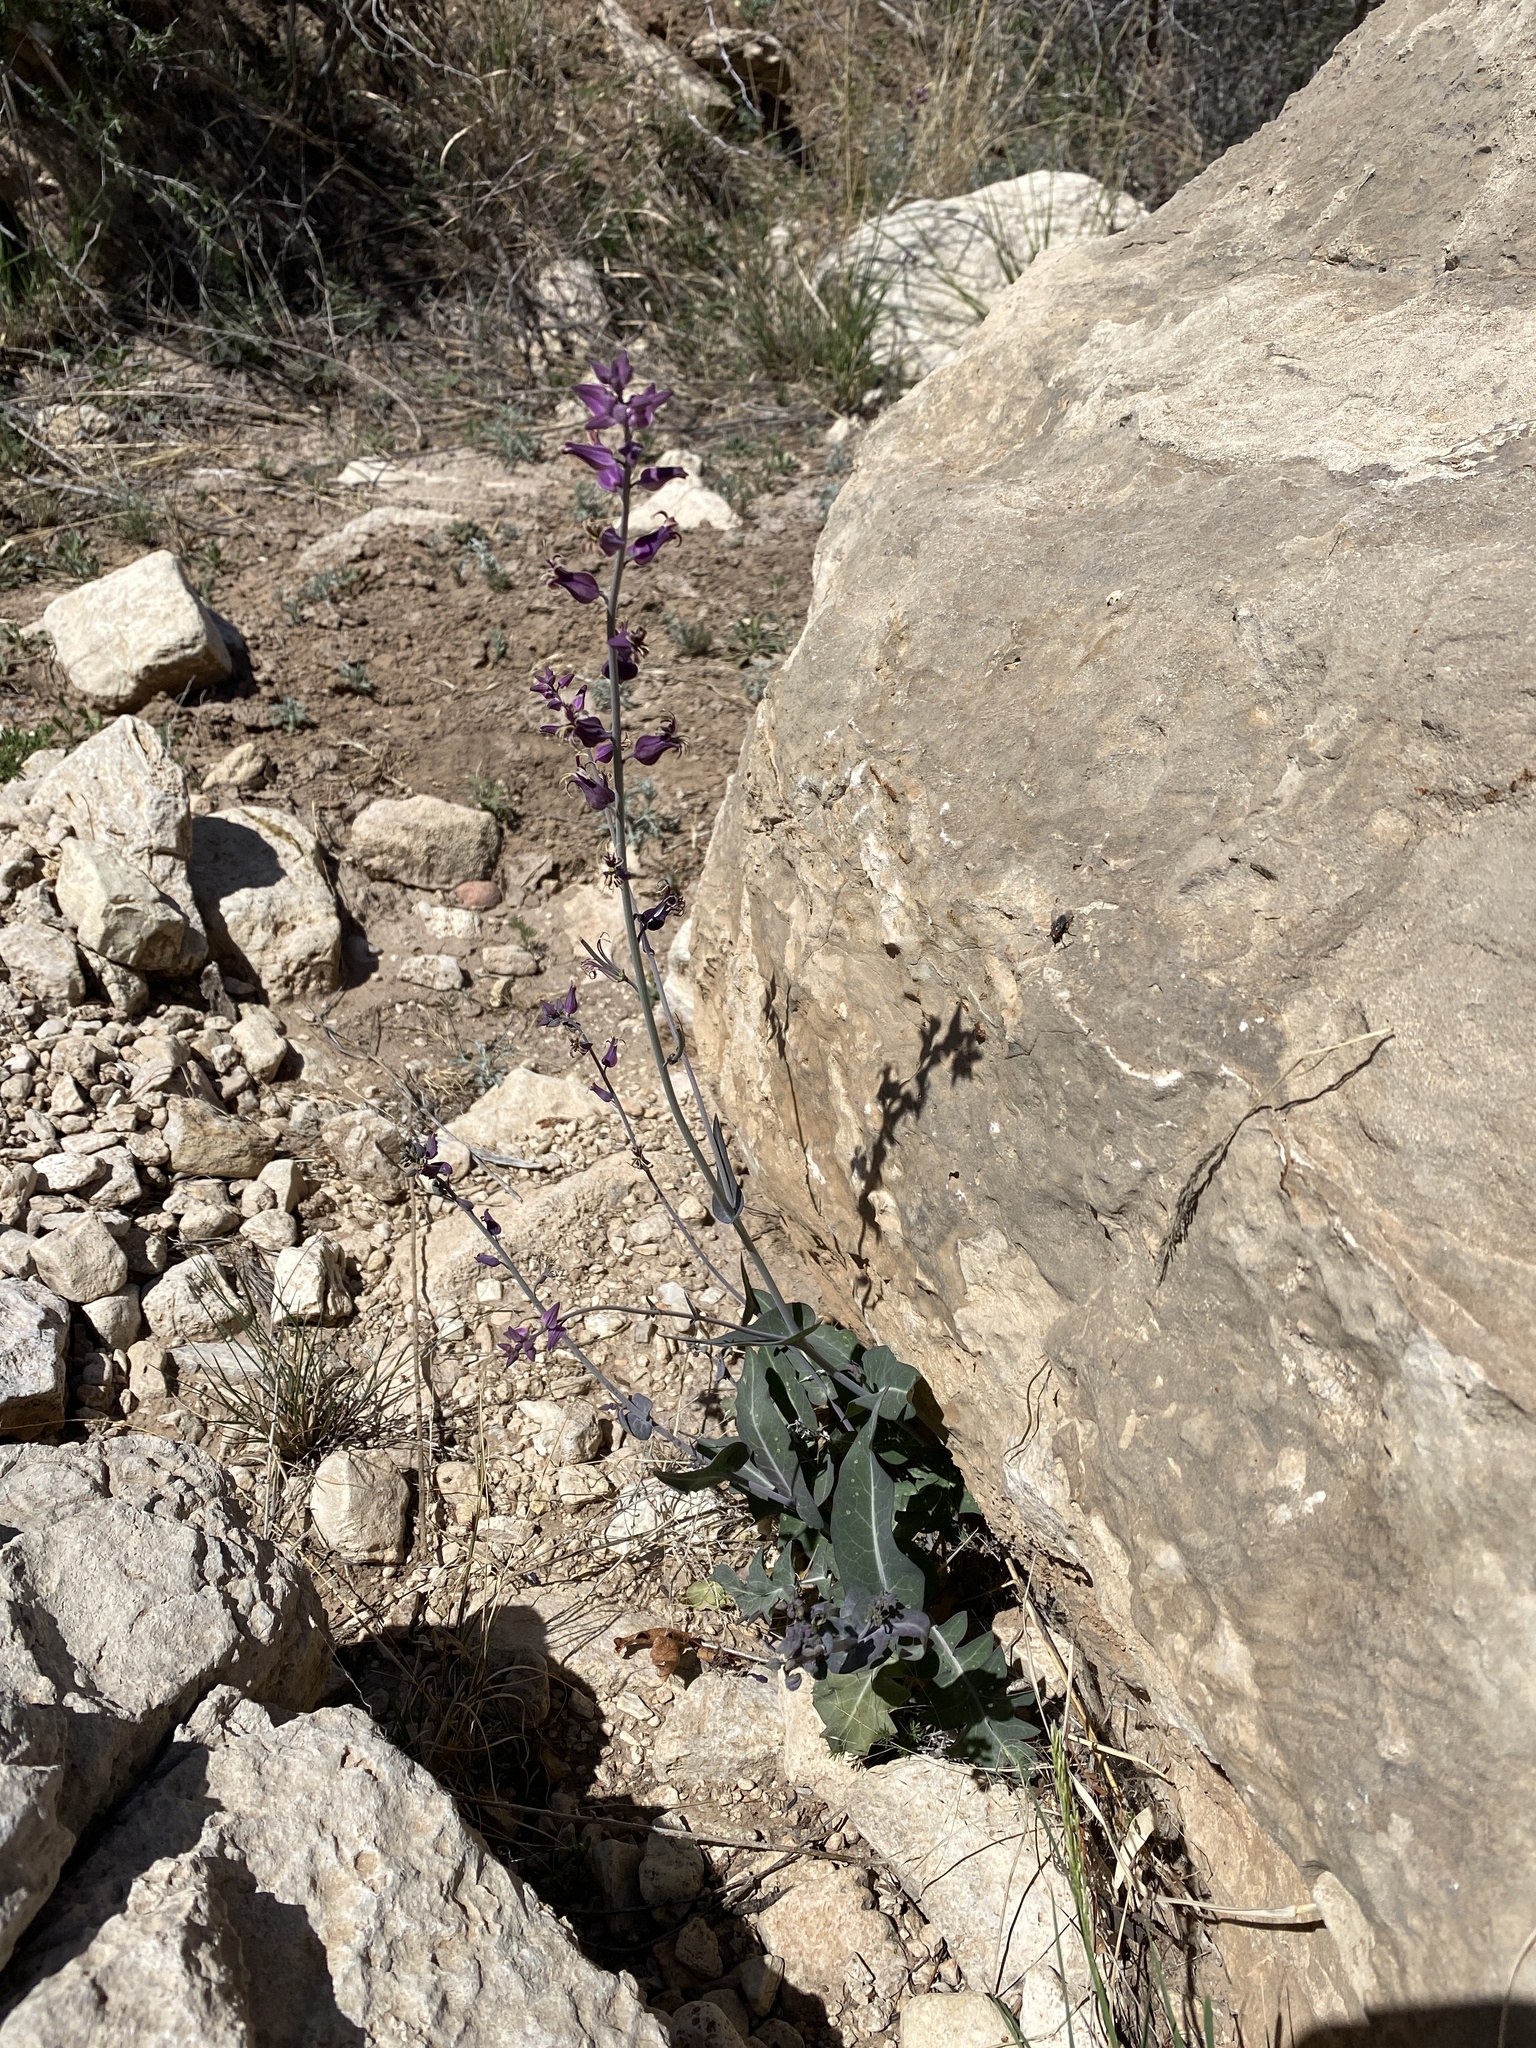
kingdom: Plantae
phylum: Tracheophyta
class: Magnoliopsida
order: Brassicales
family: Brassicaceae
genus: Streptanthus
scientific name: Streptanthus carinatus
